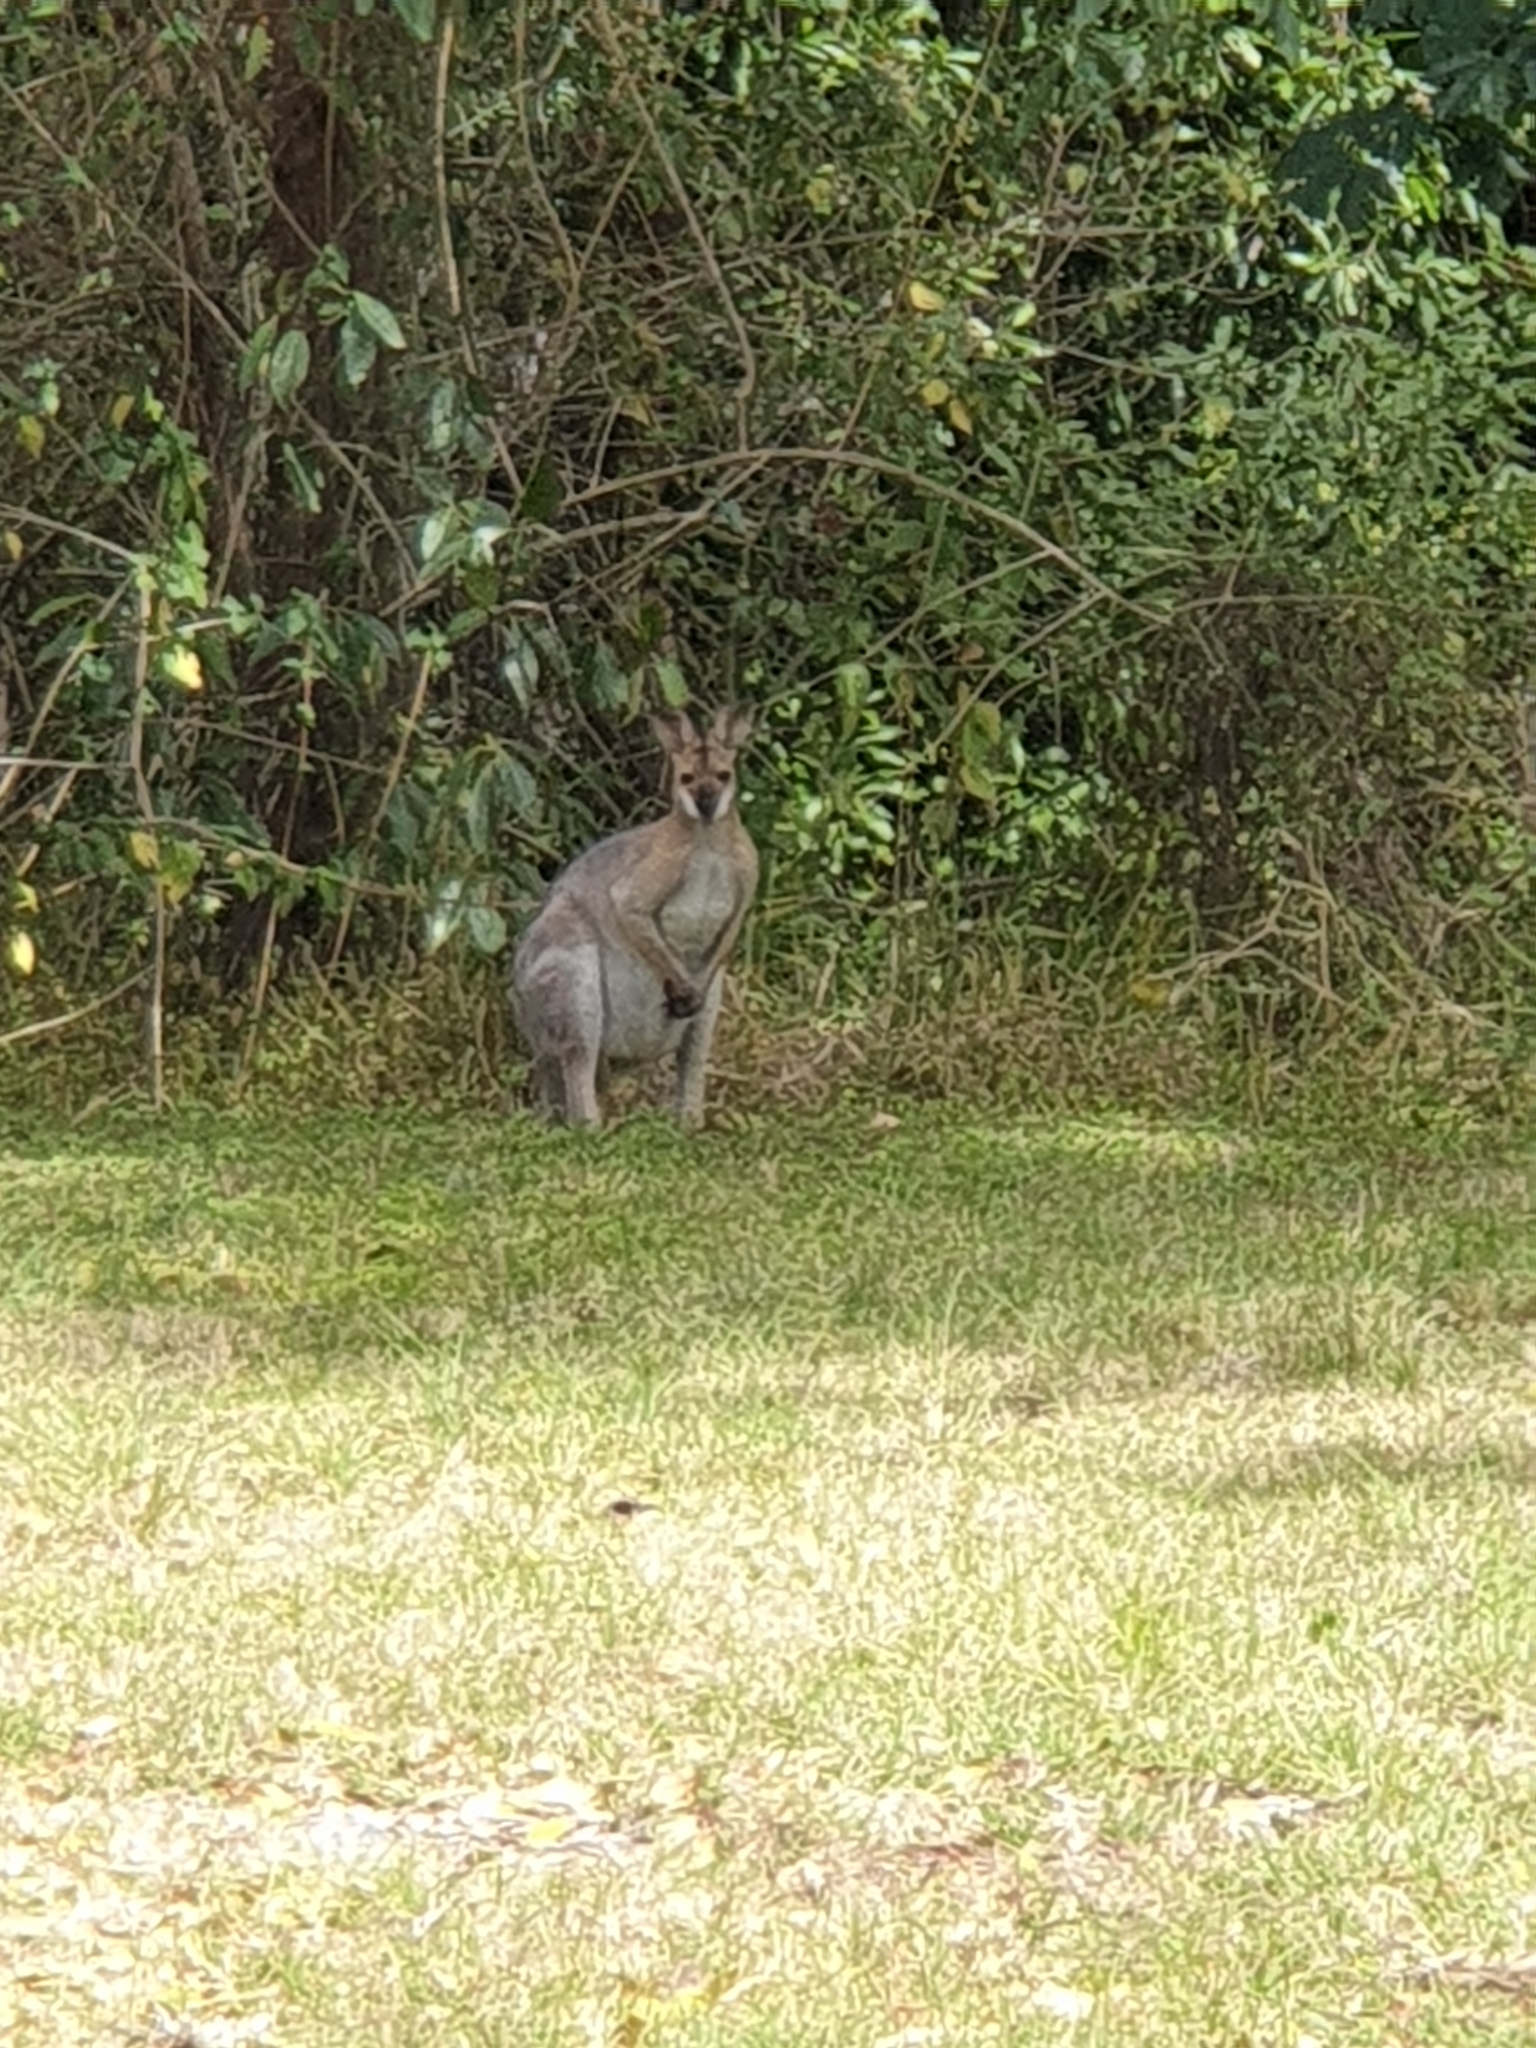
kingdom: Animalia
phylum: Chordata
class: Mammalia
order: Diprotodontia
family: Macropodidae
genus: Notamacropus
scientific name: Notamacropus rufogriseus
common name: Red-necked wallaby
